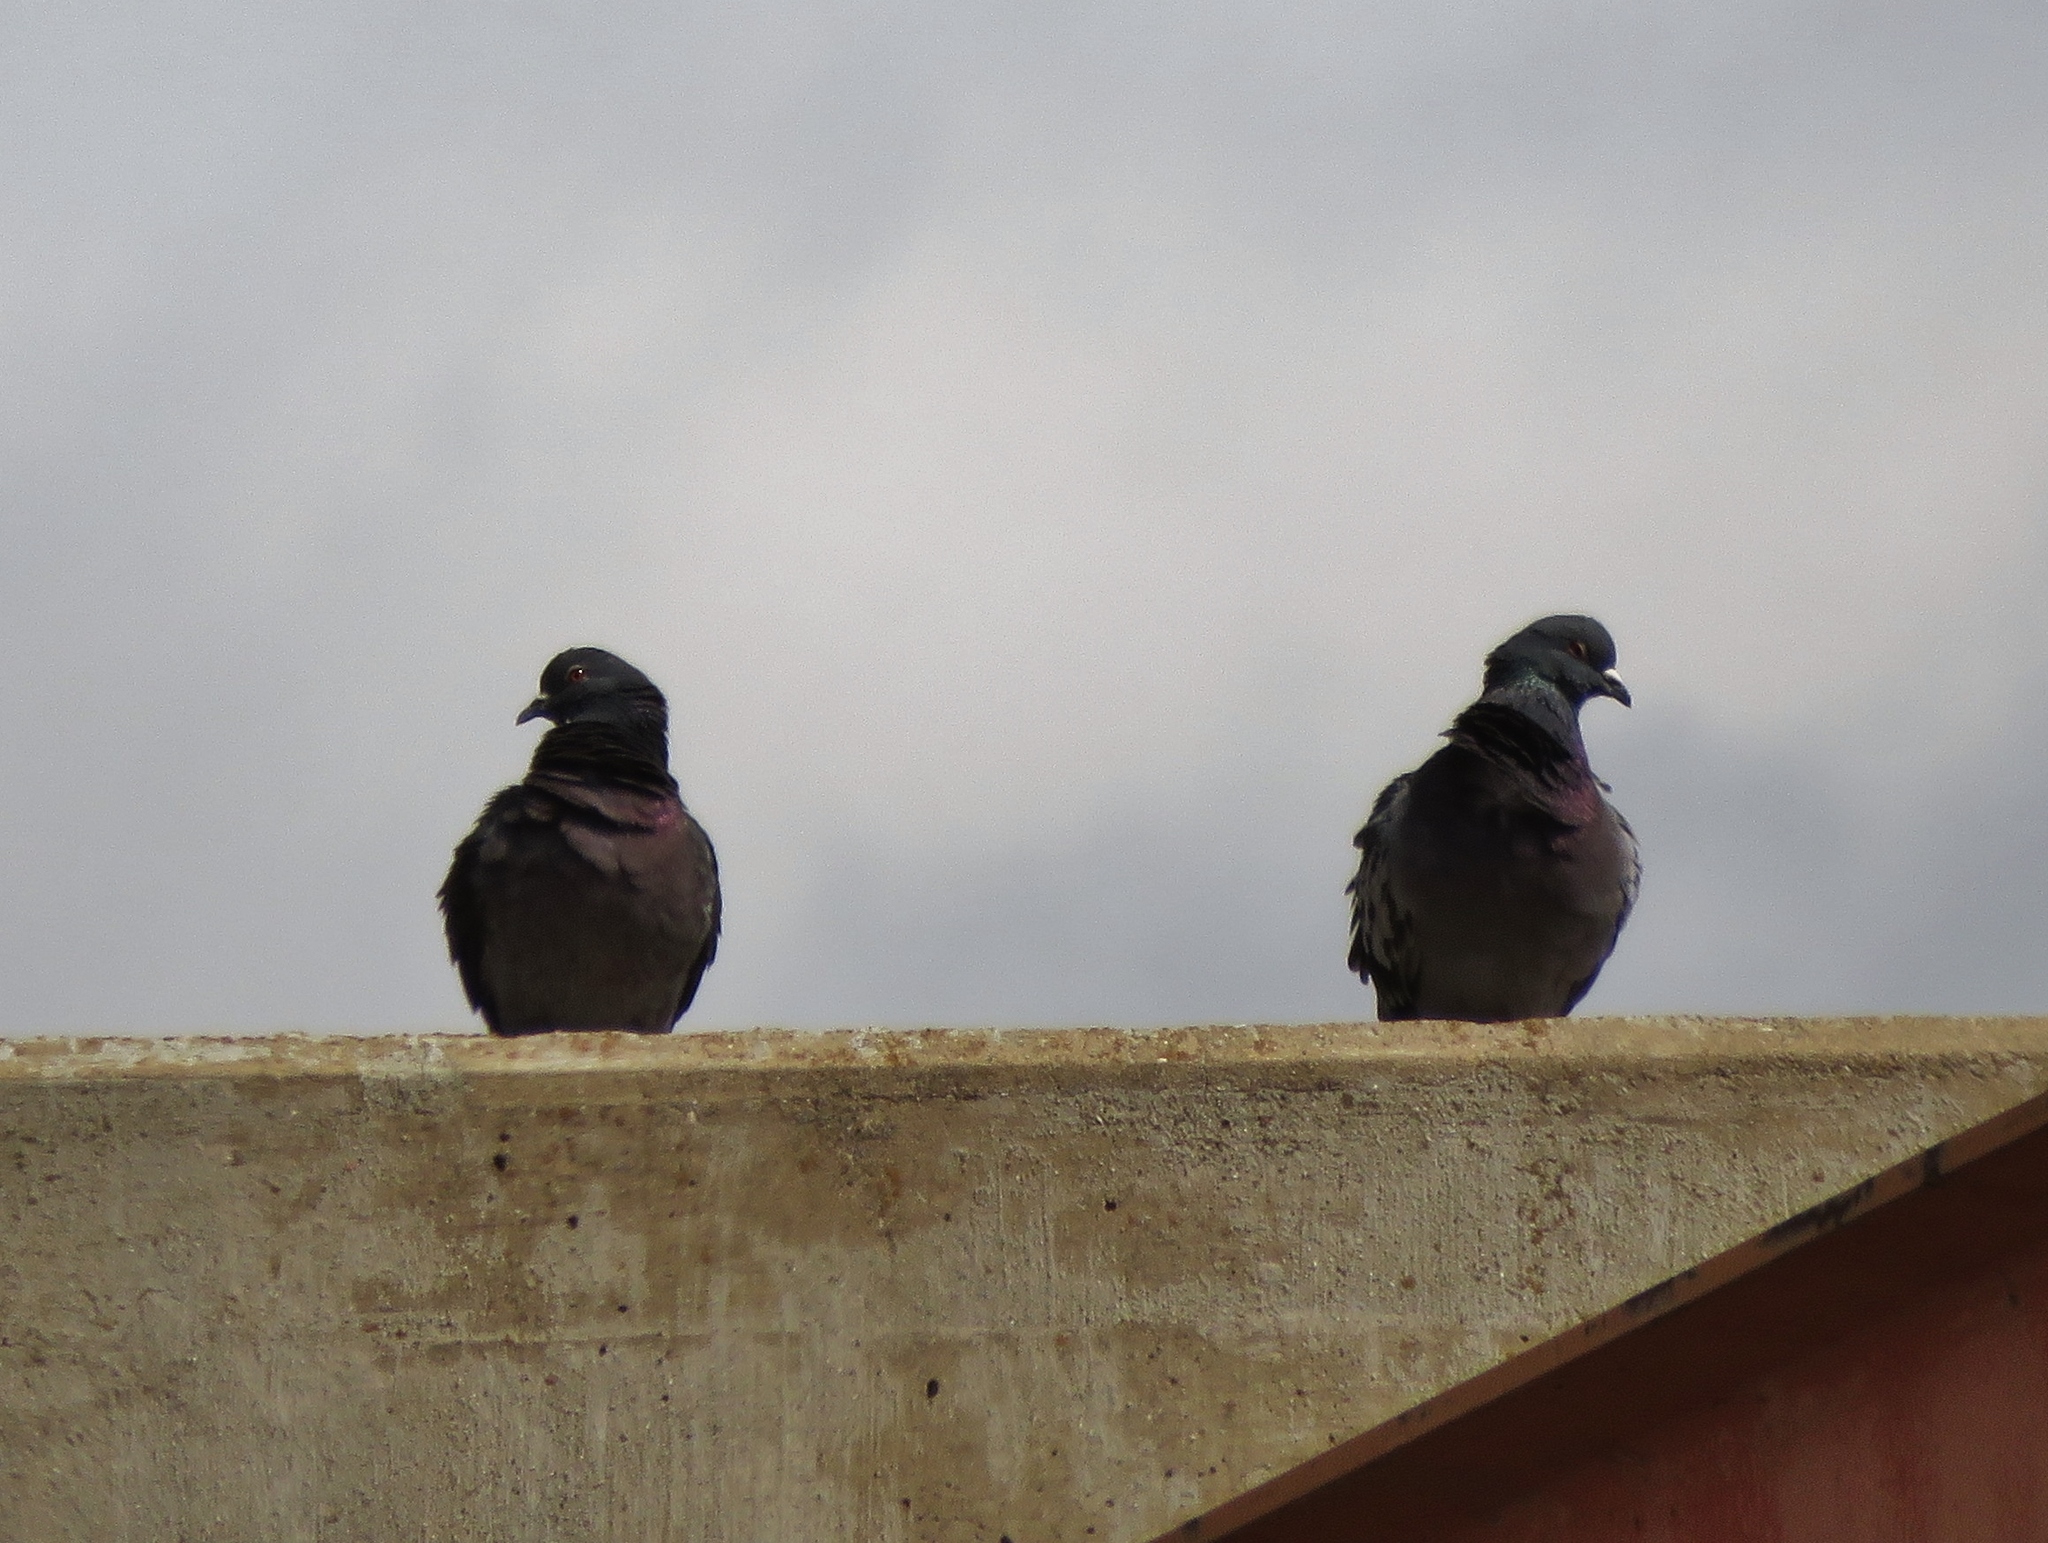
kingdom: Animalia
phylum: Chordata
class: Aves
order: Columbiformes
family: Columbidae
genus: Columba
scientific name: Columba livia
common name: Rock pigeon
